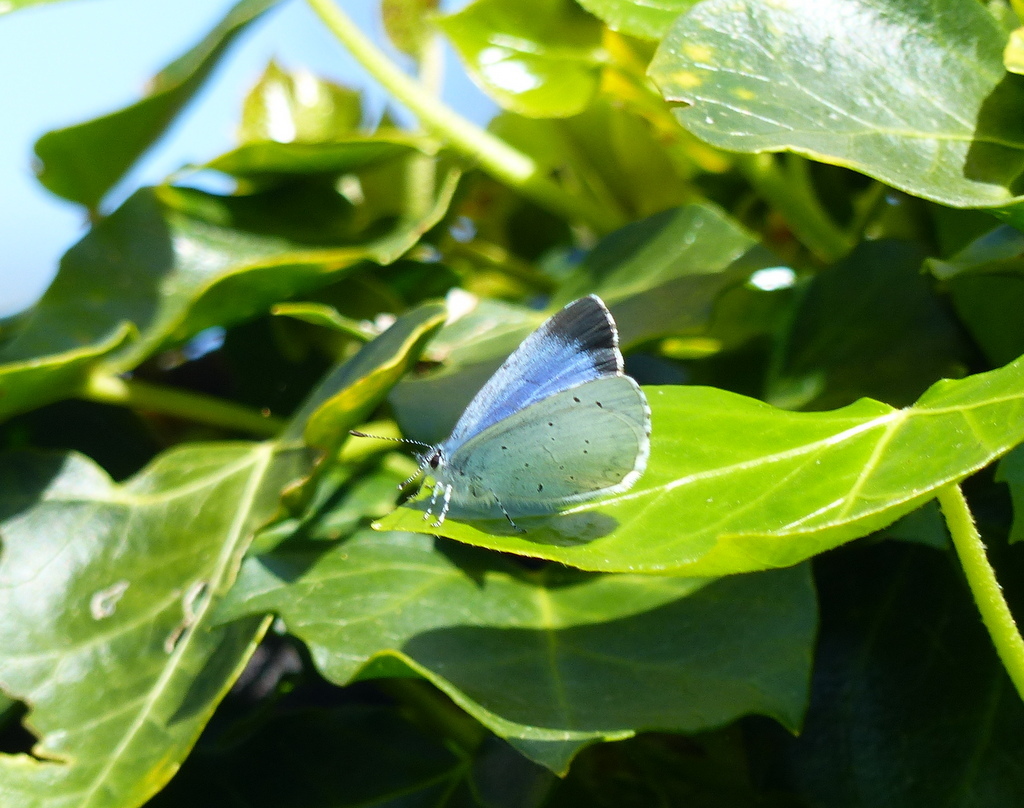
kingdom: Animalia
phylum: Arthropoda
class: Insecta
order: Lepidoptera
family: Lycaenidae
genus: Celastrina
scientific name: Celastrina argiolus
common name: Holly blue
